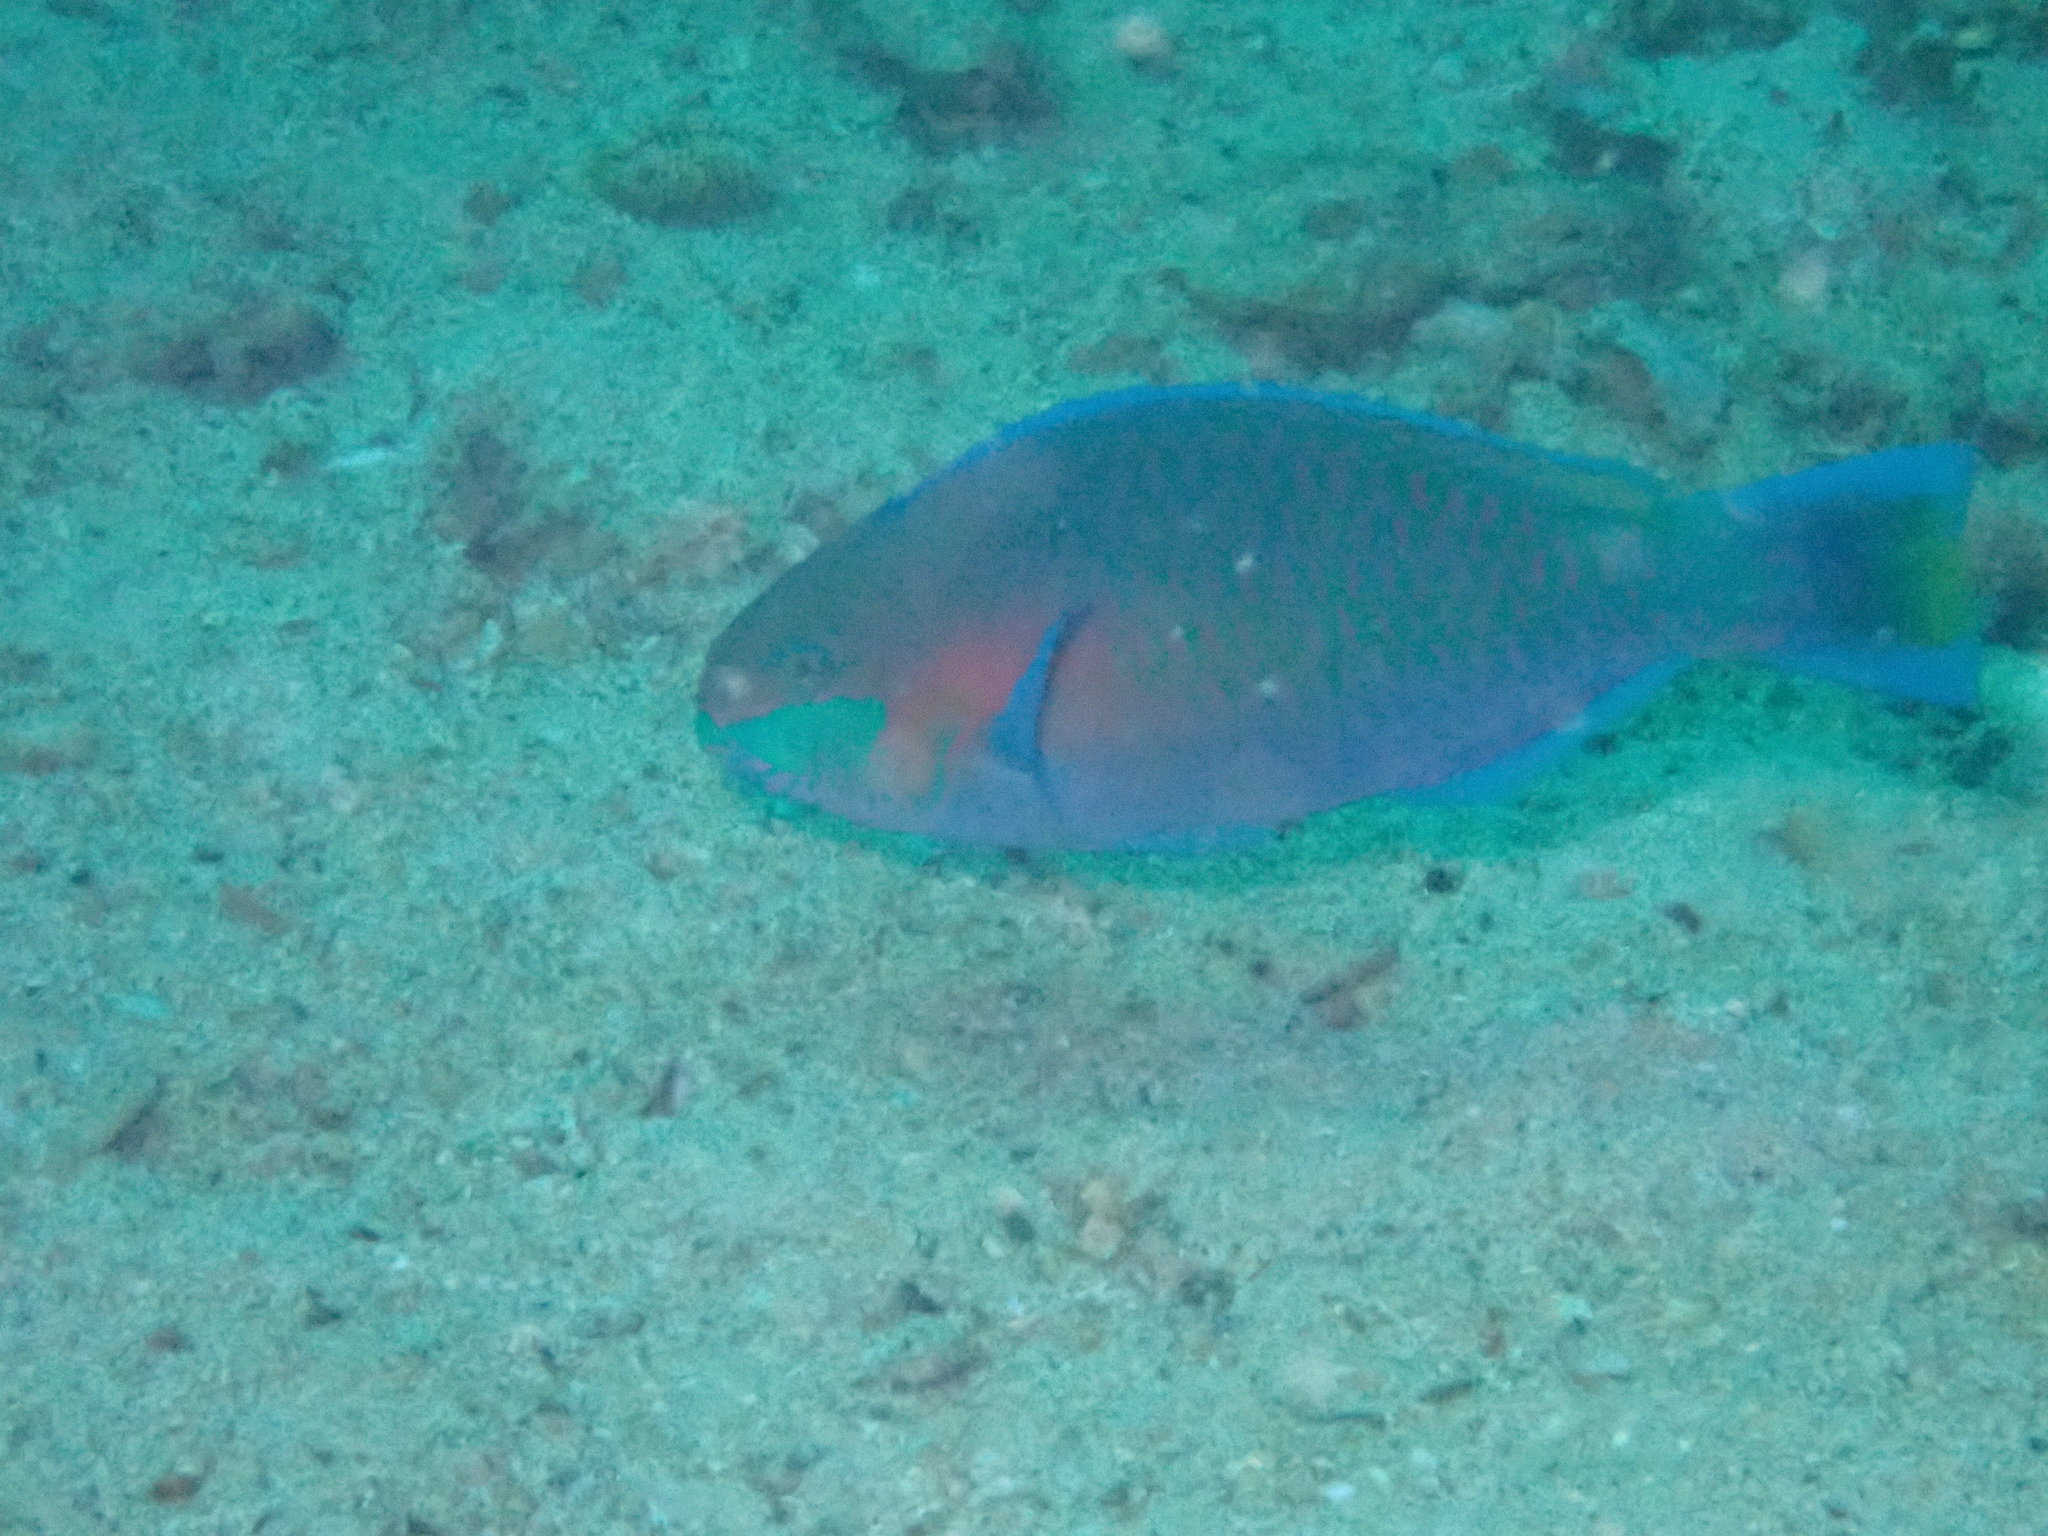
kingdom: Animalia
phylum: Chordata
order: Perciformes
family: Scaridae
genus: Scarus
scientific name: Scarus quoyi
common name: Quoy's parrotfish
